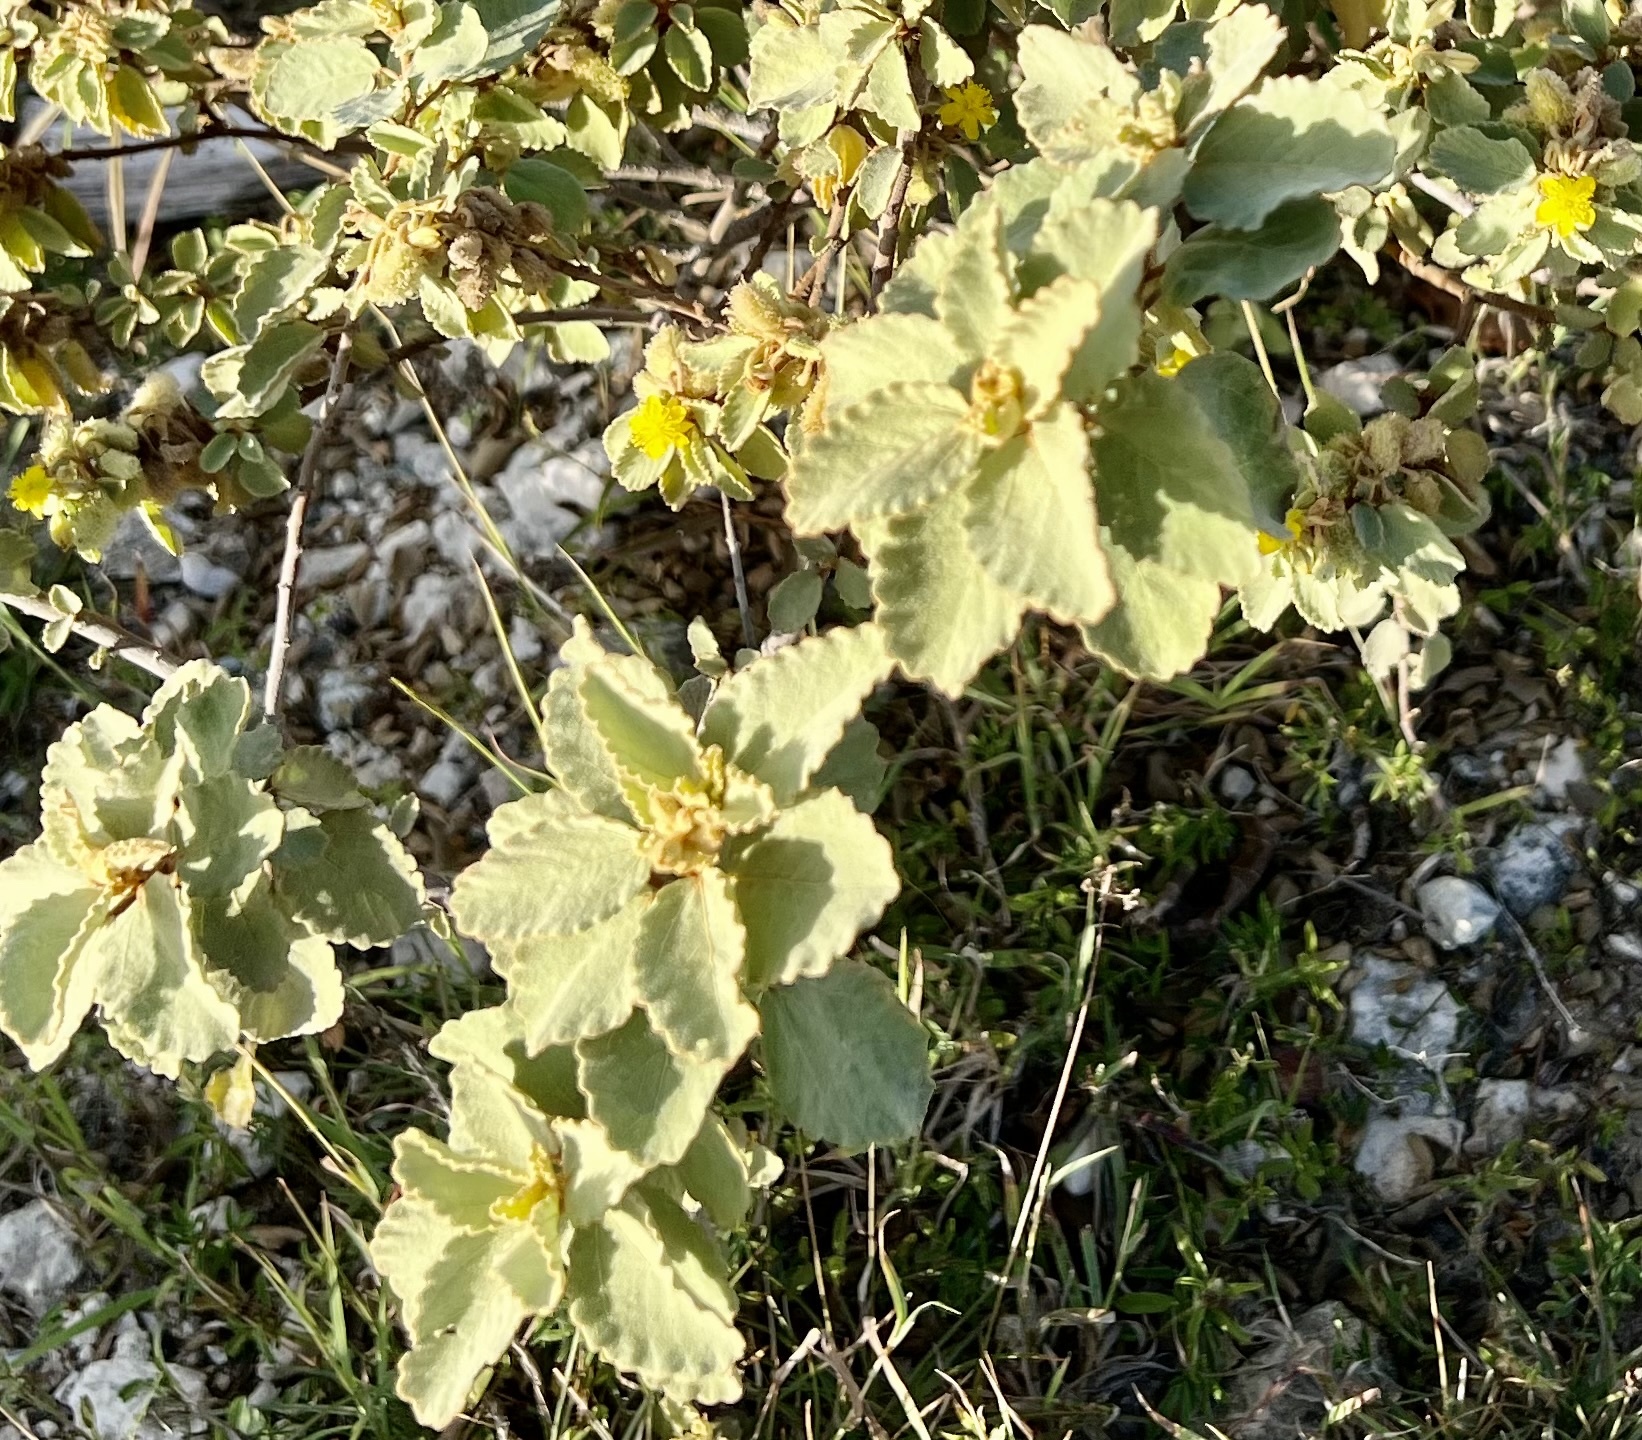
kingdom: Plantae
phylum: Tracheophyta
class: Magnoliopsida
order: Malvales
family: Malvaceae
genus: Corchorus
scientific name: Corchorus hirsutus
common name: Jackswitch
